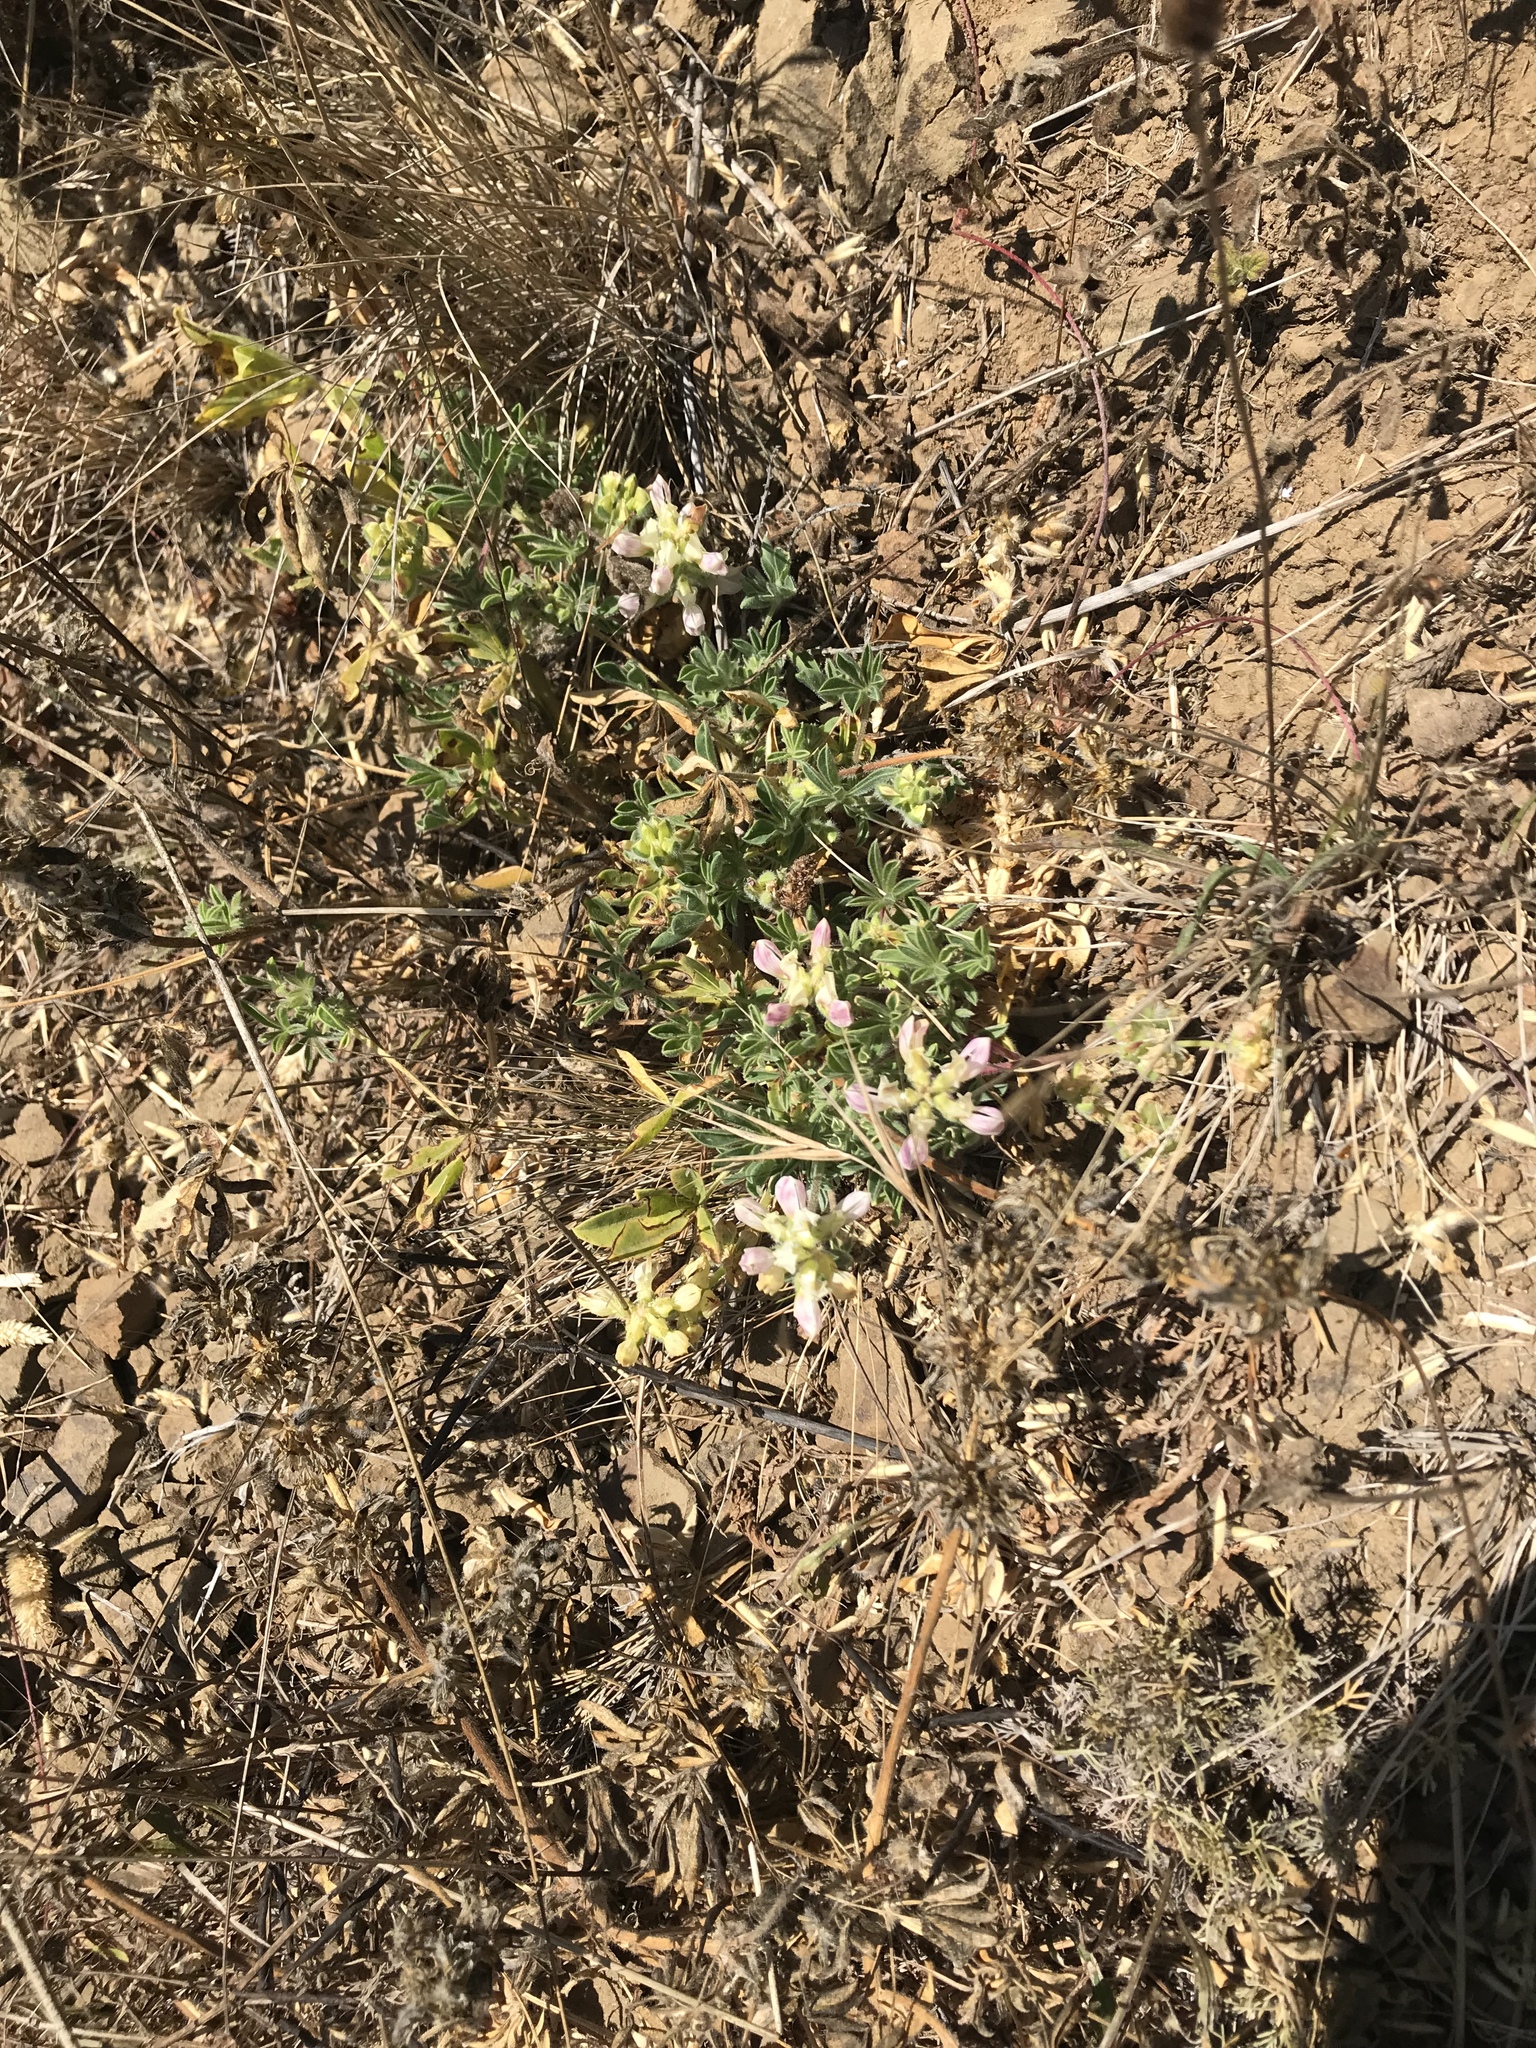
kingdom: Plantae
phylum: Tracheophyta
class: Magnoliopsida
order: Fabales
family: Fabaceae
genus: Lupinus
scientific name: Lupinus microcarpus
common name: Chick lupine
